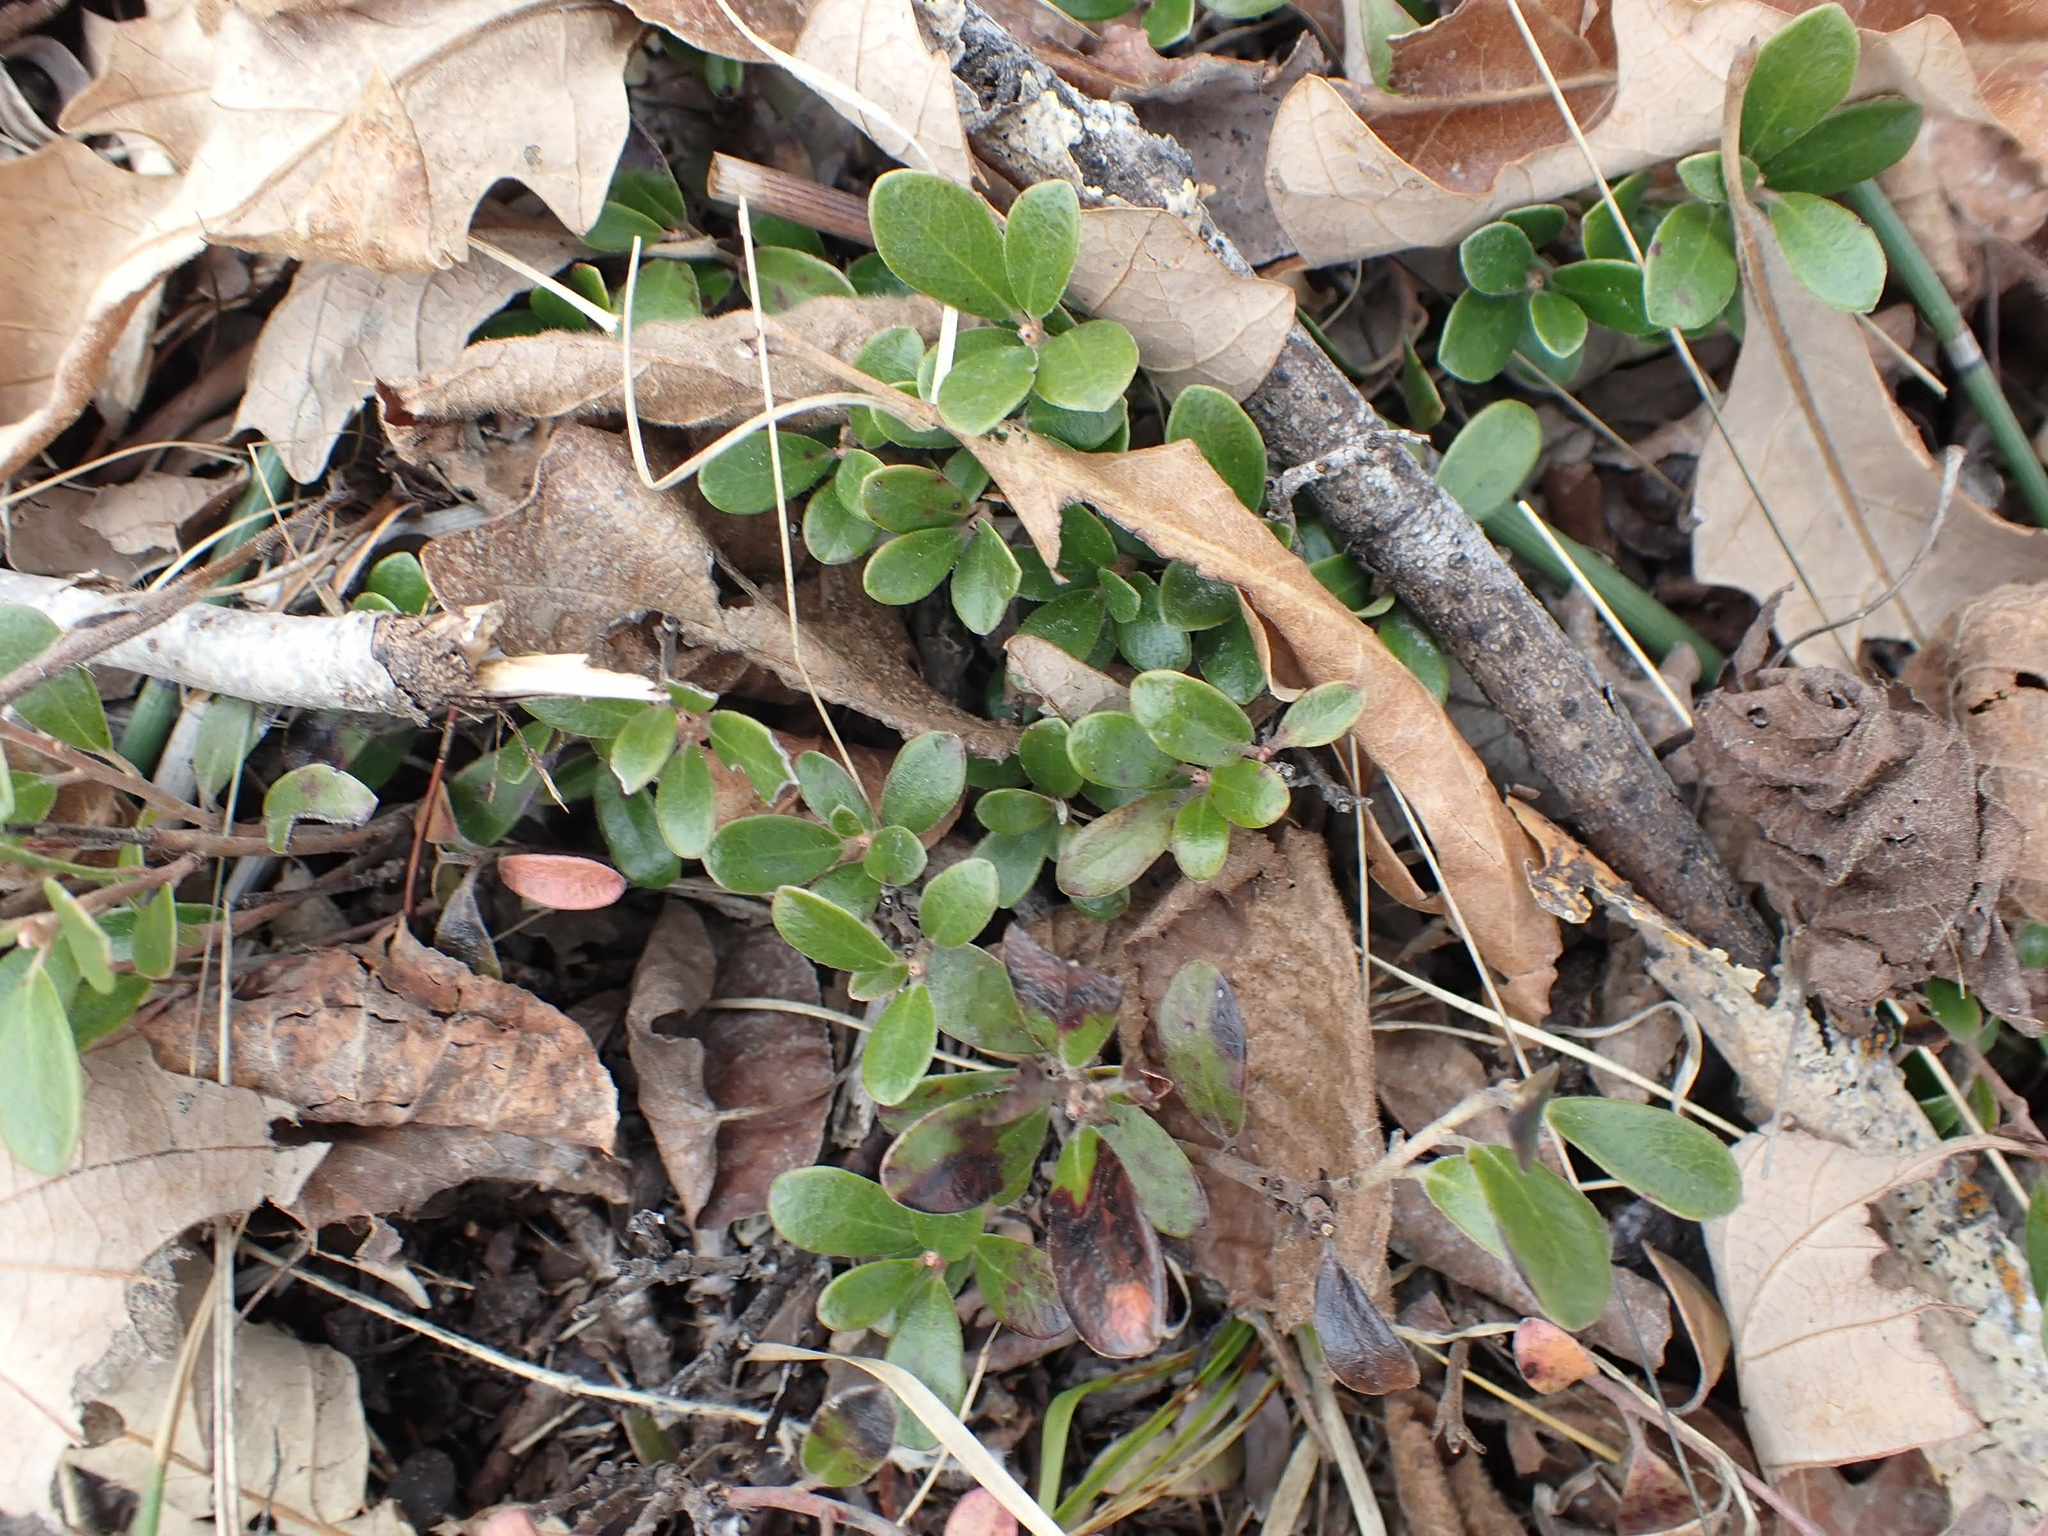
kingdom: Plantae
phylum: Tracheophyta
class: Magnoliopsida
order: Ericales
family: Ericaceae
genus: Arctostaphylos
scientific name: Arctostaphylos uva-ursi
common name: Bearberry
